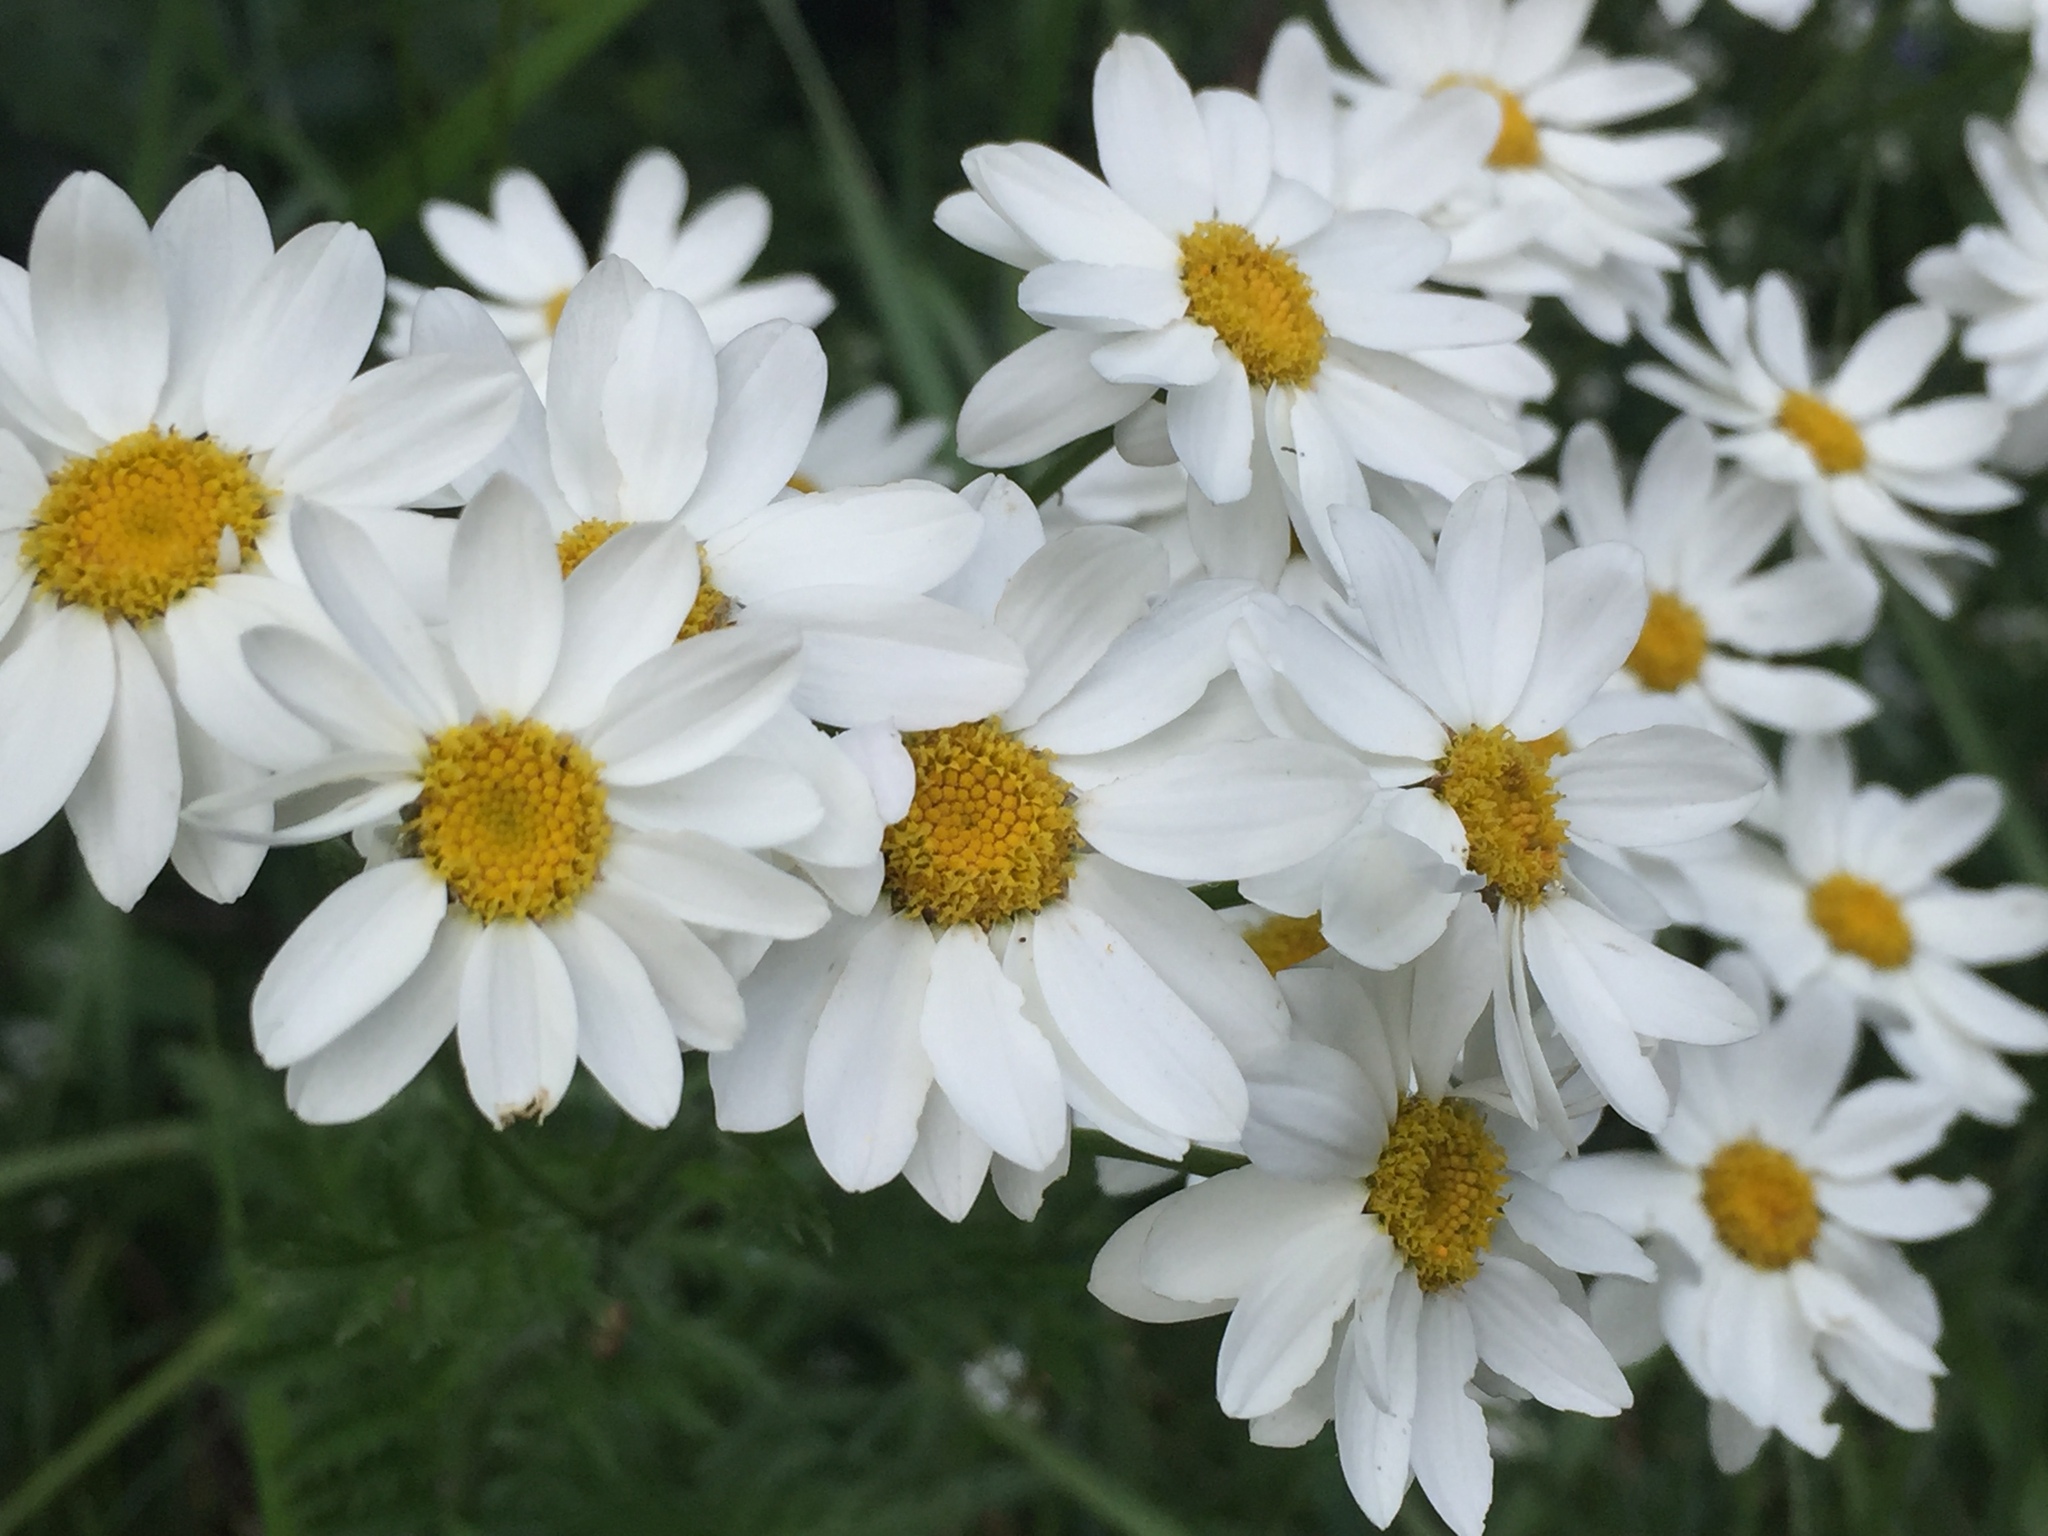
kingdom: Plantae
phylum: Tracheophyta
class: Magnoliopsida
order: Asterales
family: Asteraceae
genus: Tanacetum
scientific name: Tanacetum corymbosum
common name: Scentless feverfew
